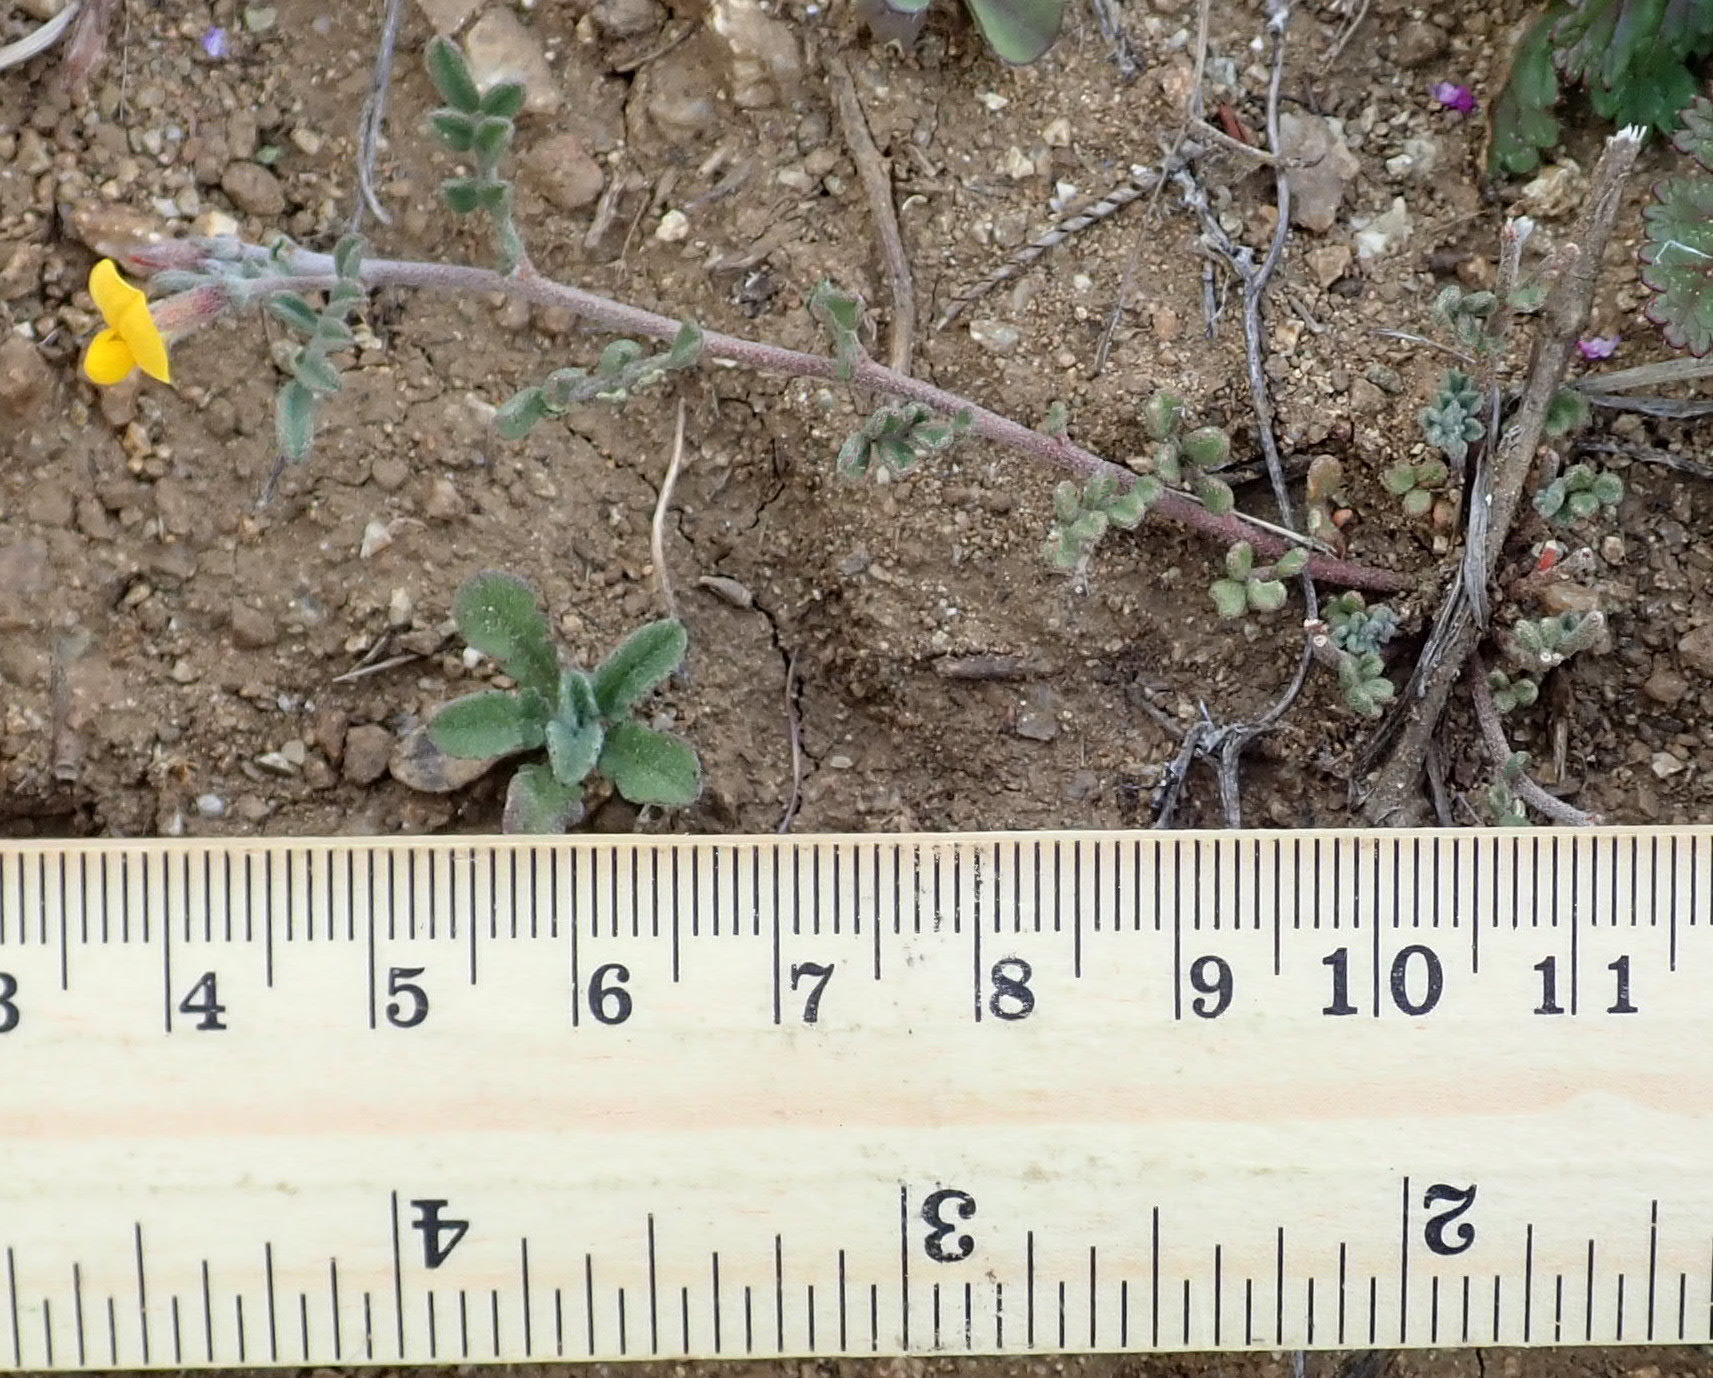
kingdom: Plantae
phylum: Tracheophyta
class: Magnoliopsida
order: Fabales
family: Fabaceae
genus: Acmispon
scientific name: Acmispon strigosus
